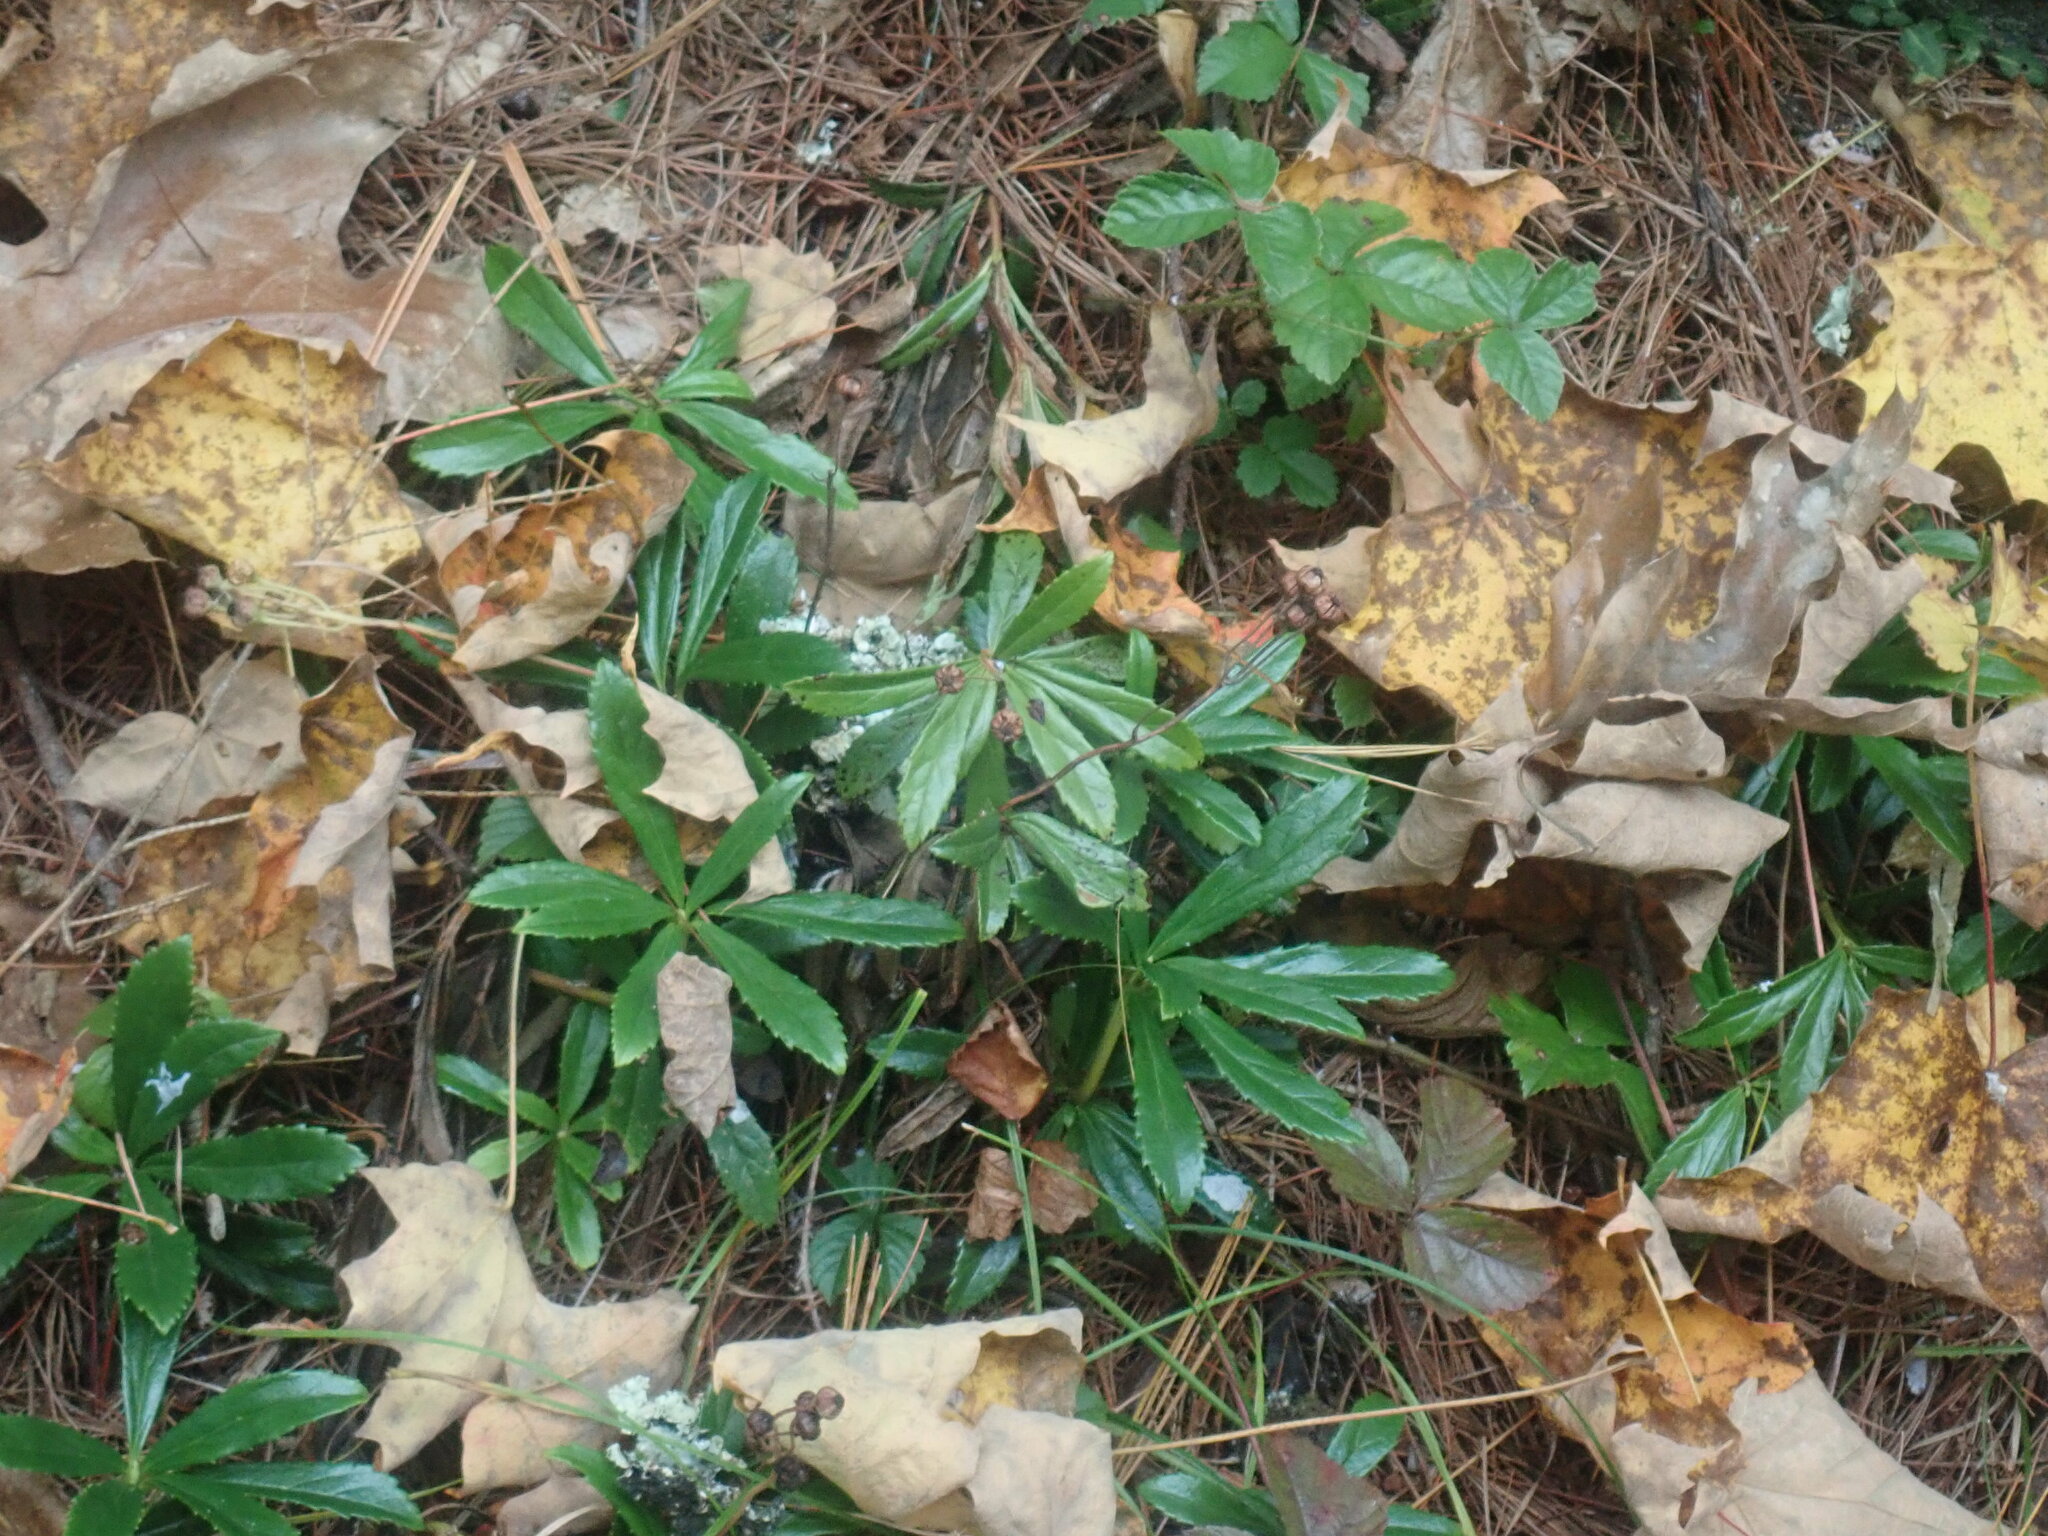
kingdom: Plantae
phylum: Tracheophyta
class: Magnoliopsida
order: Ericales
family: Ericaceae
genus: Chimaphila
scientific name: Chimaphila umbellata
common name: Pipsissewa
